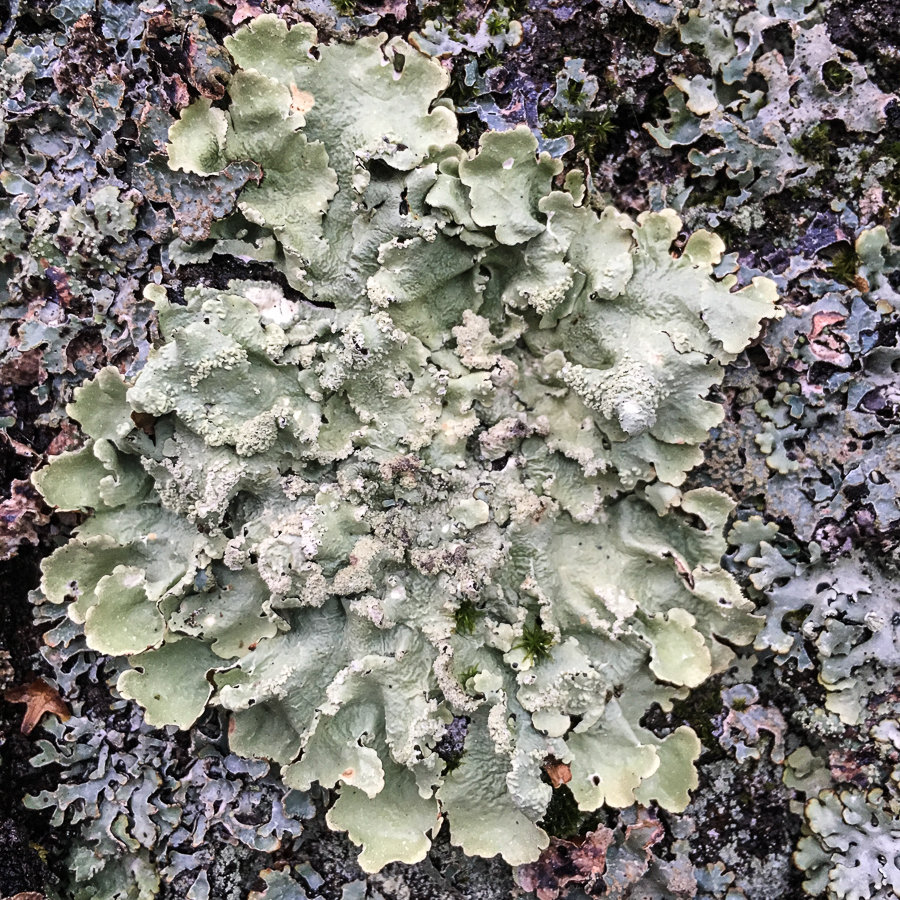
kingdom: Fungi
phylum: Ascomycota
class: Lecanoromycetes
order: Lecanorales
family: Parmeliaceae
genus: Flavoparmelia
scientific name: Flavoparmelia caperata
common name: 40-mile per hour lichen
